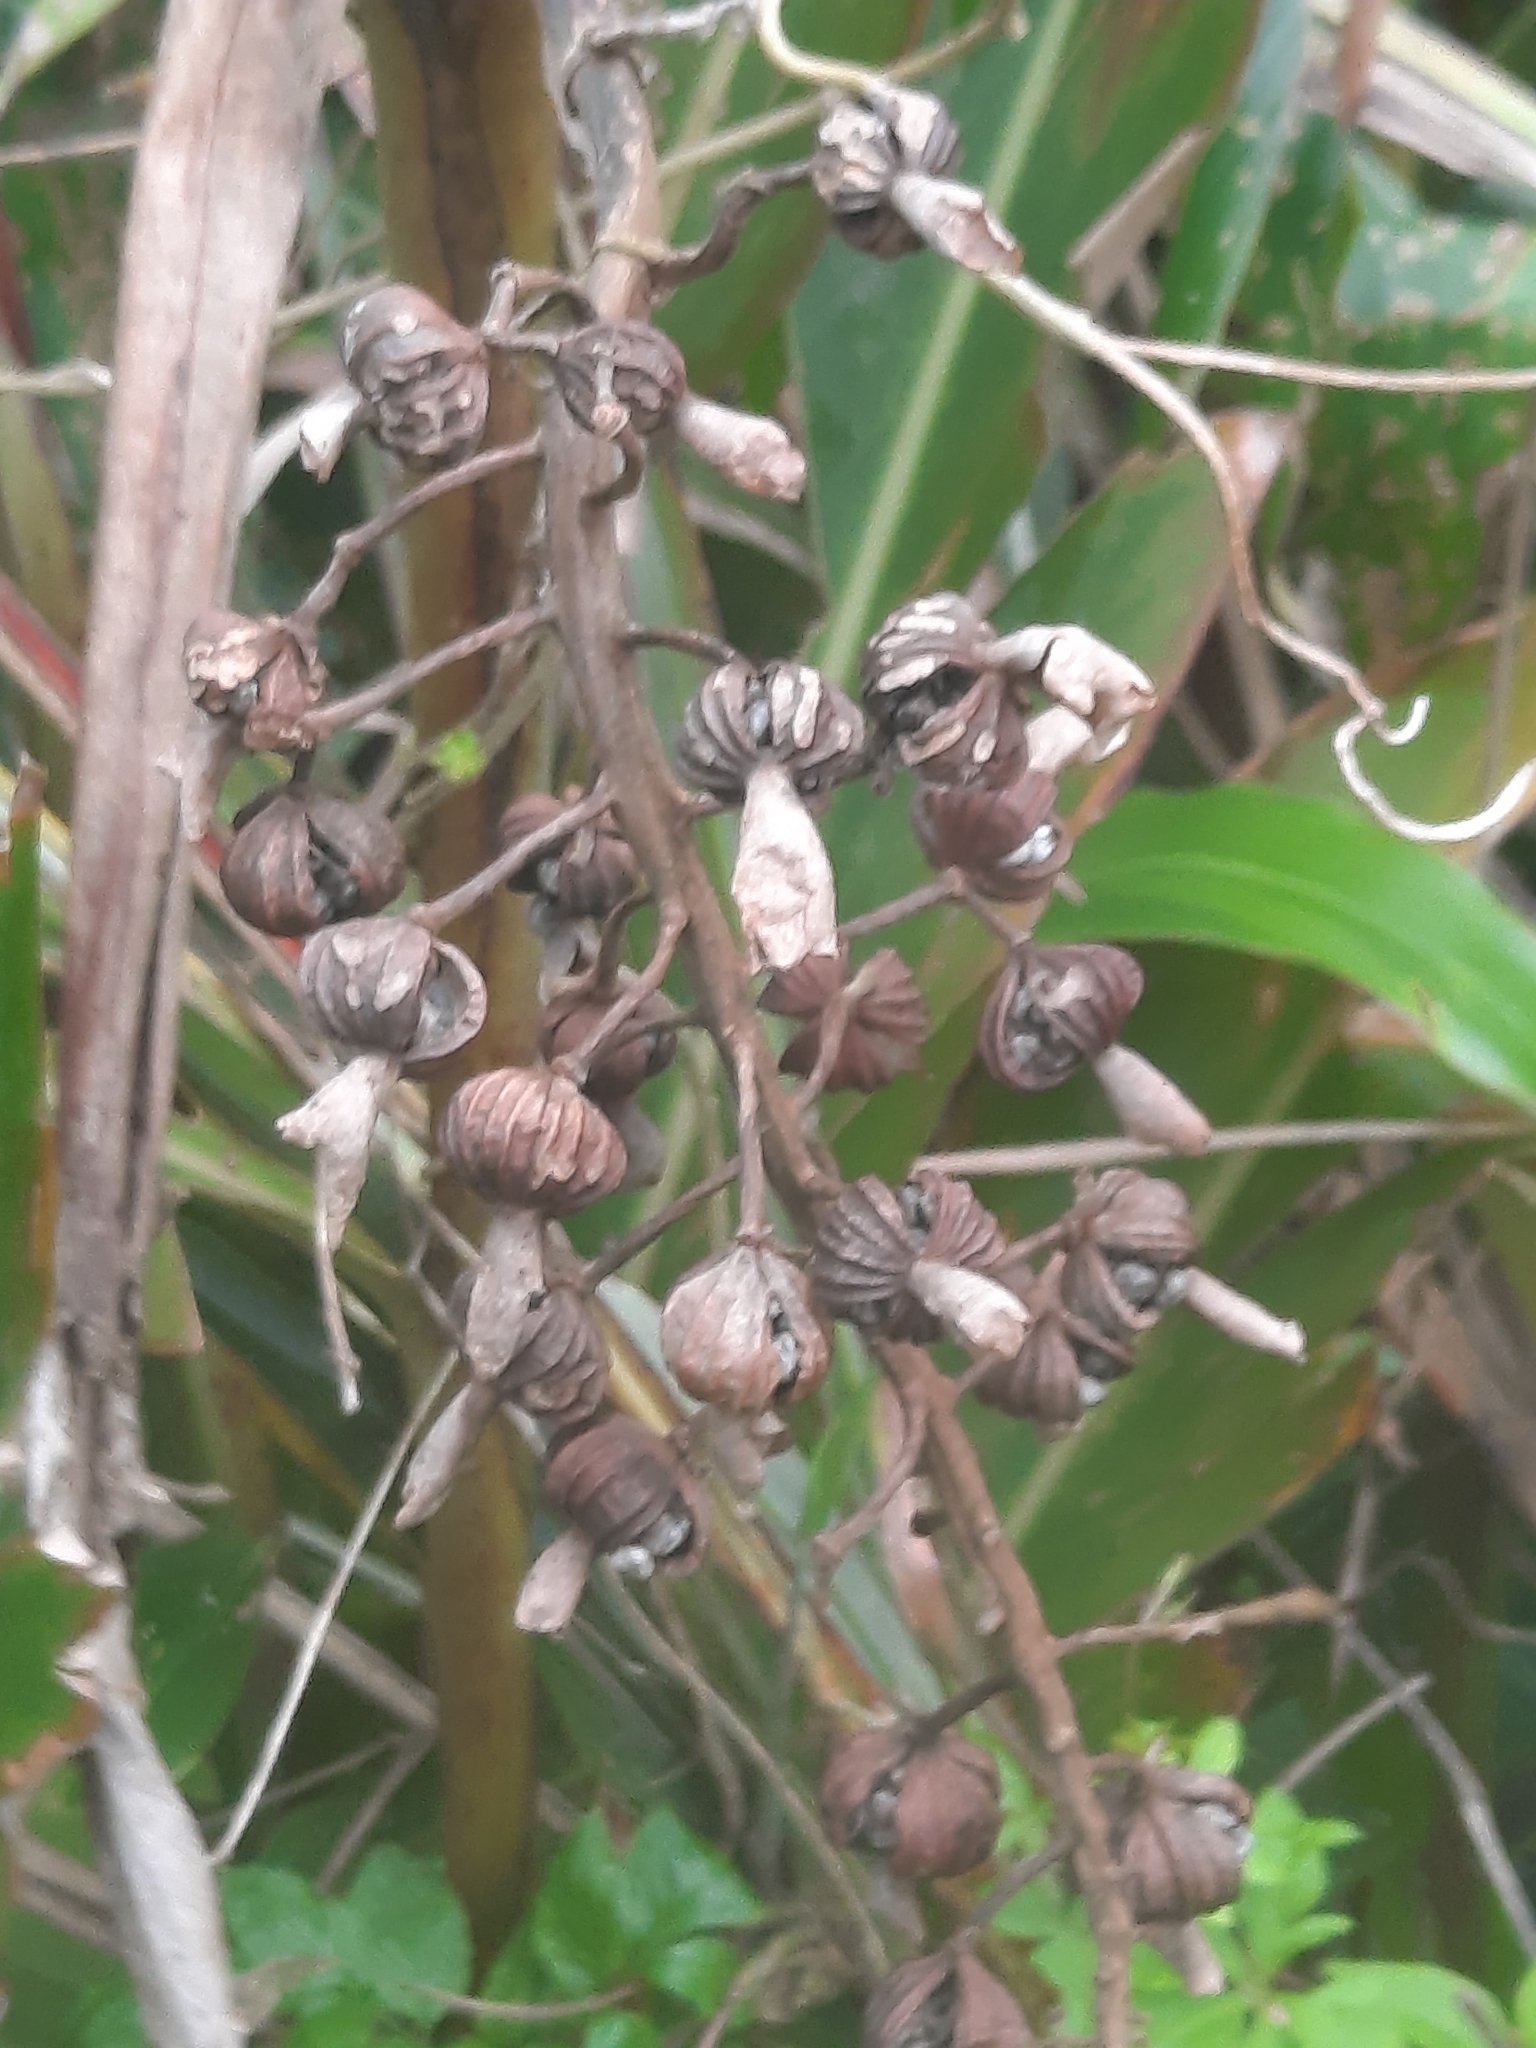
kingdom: Plantae
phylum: Tracheophyta
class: Liliopsida
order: Zingiberales
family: Zingiberaceae
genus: Alpinia
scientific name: Alpinia zerumbet
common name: Shellplant
